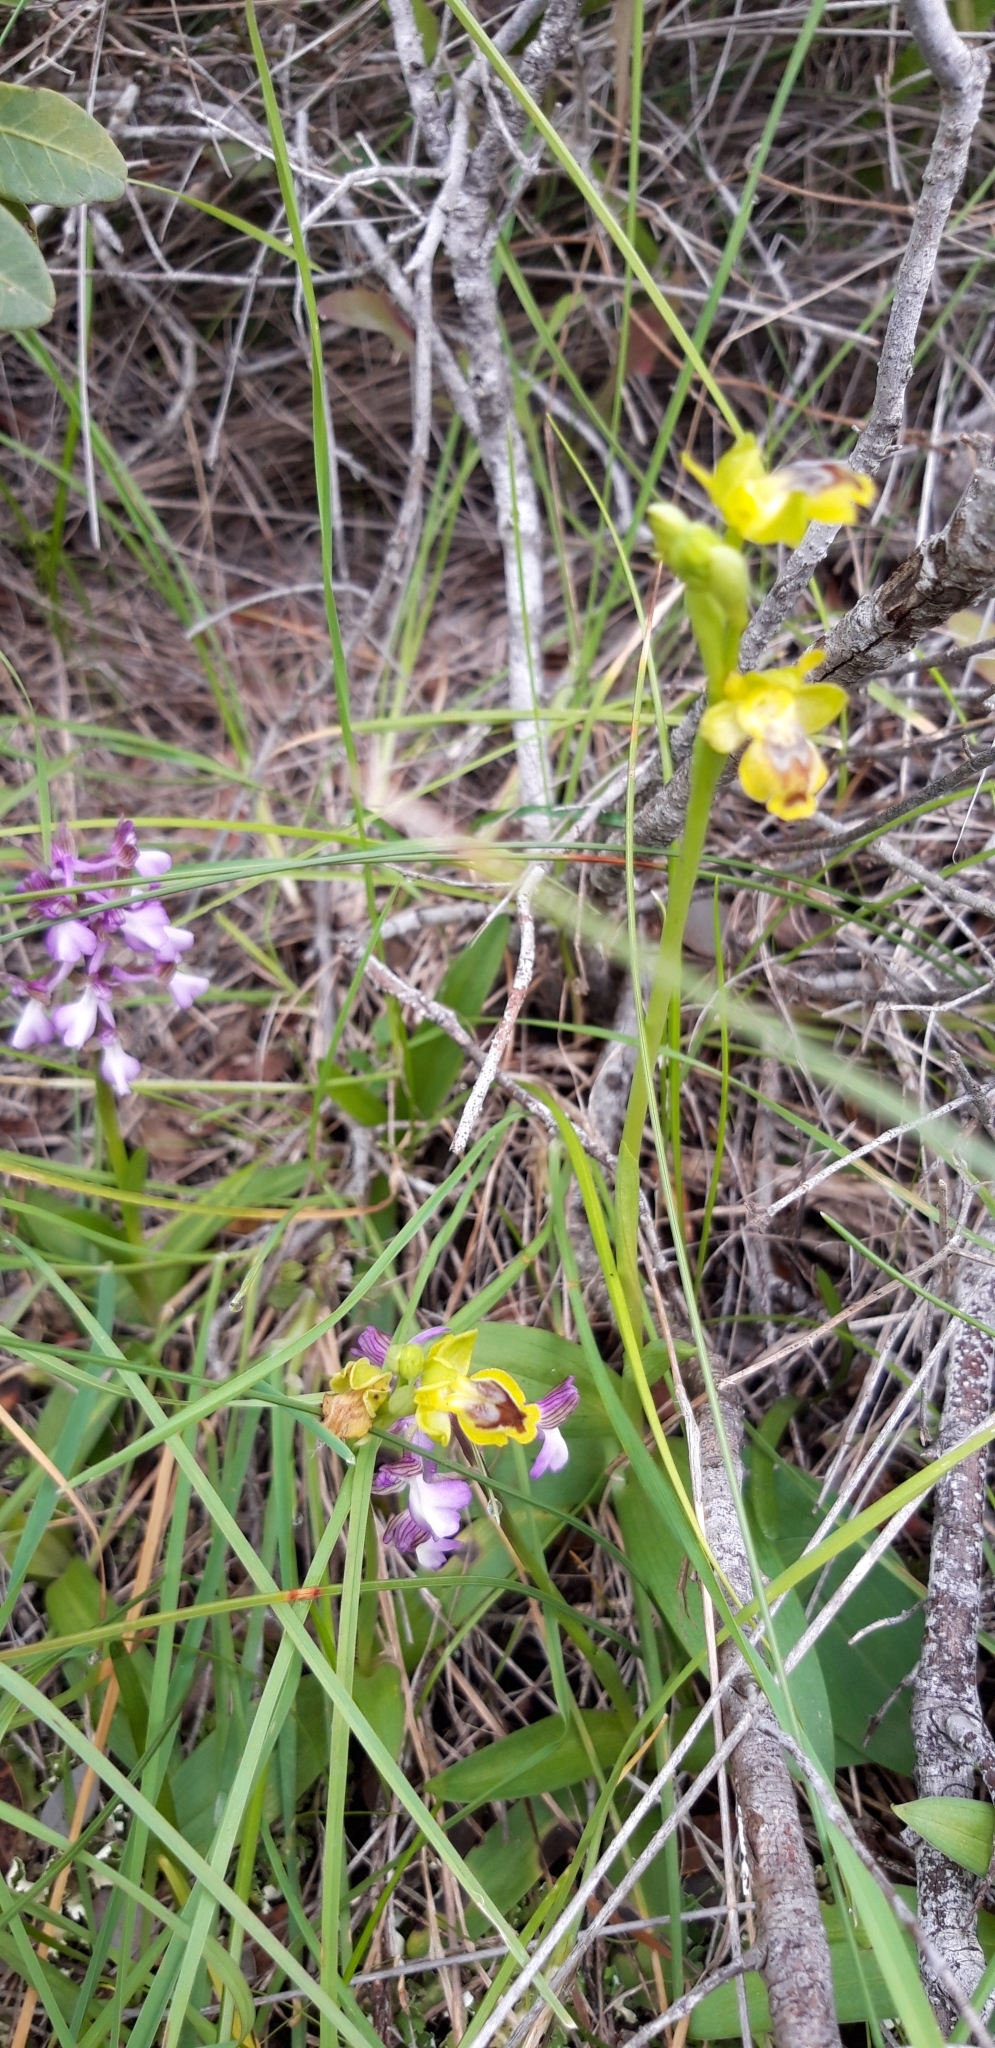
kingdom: Plantae
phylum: Tracheophyta
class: Liliopsida
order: Asparagales
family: Orchidaceae
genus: Ophrys
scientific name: Ophrys lutea
